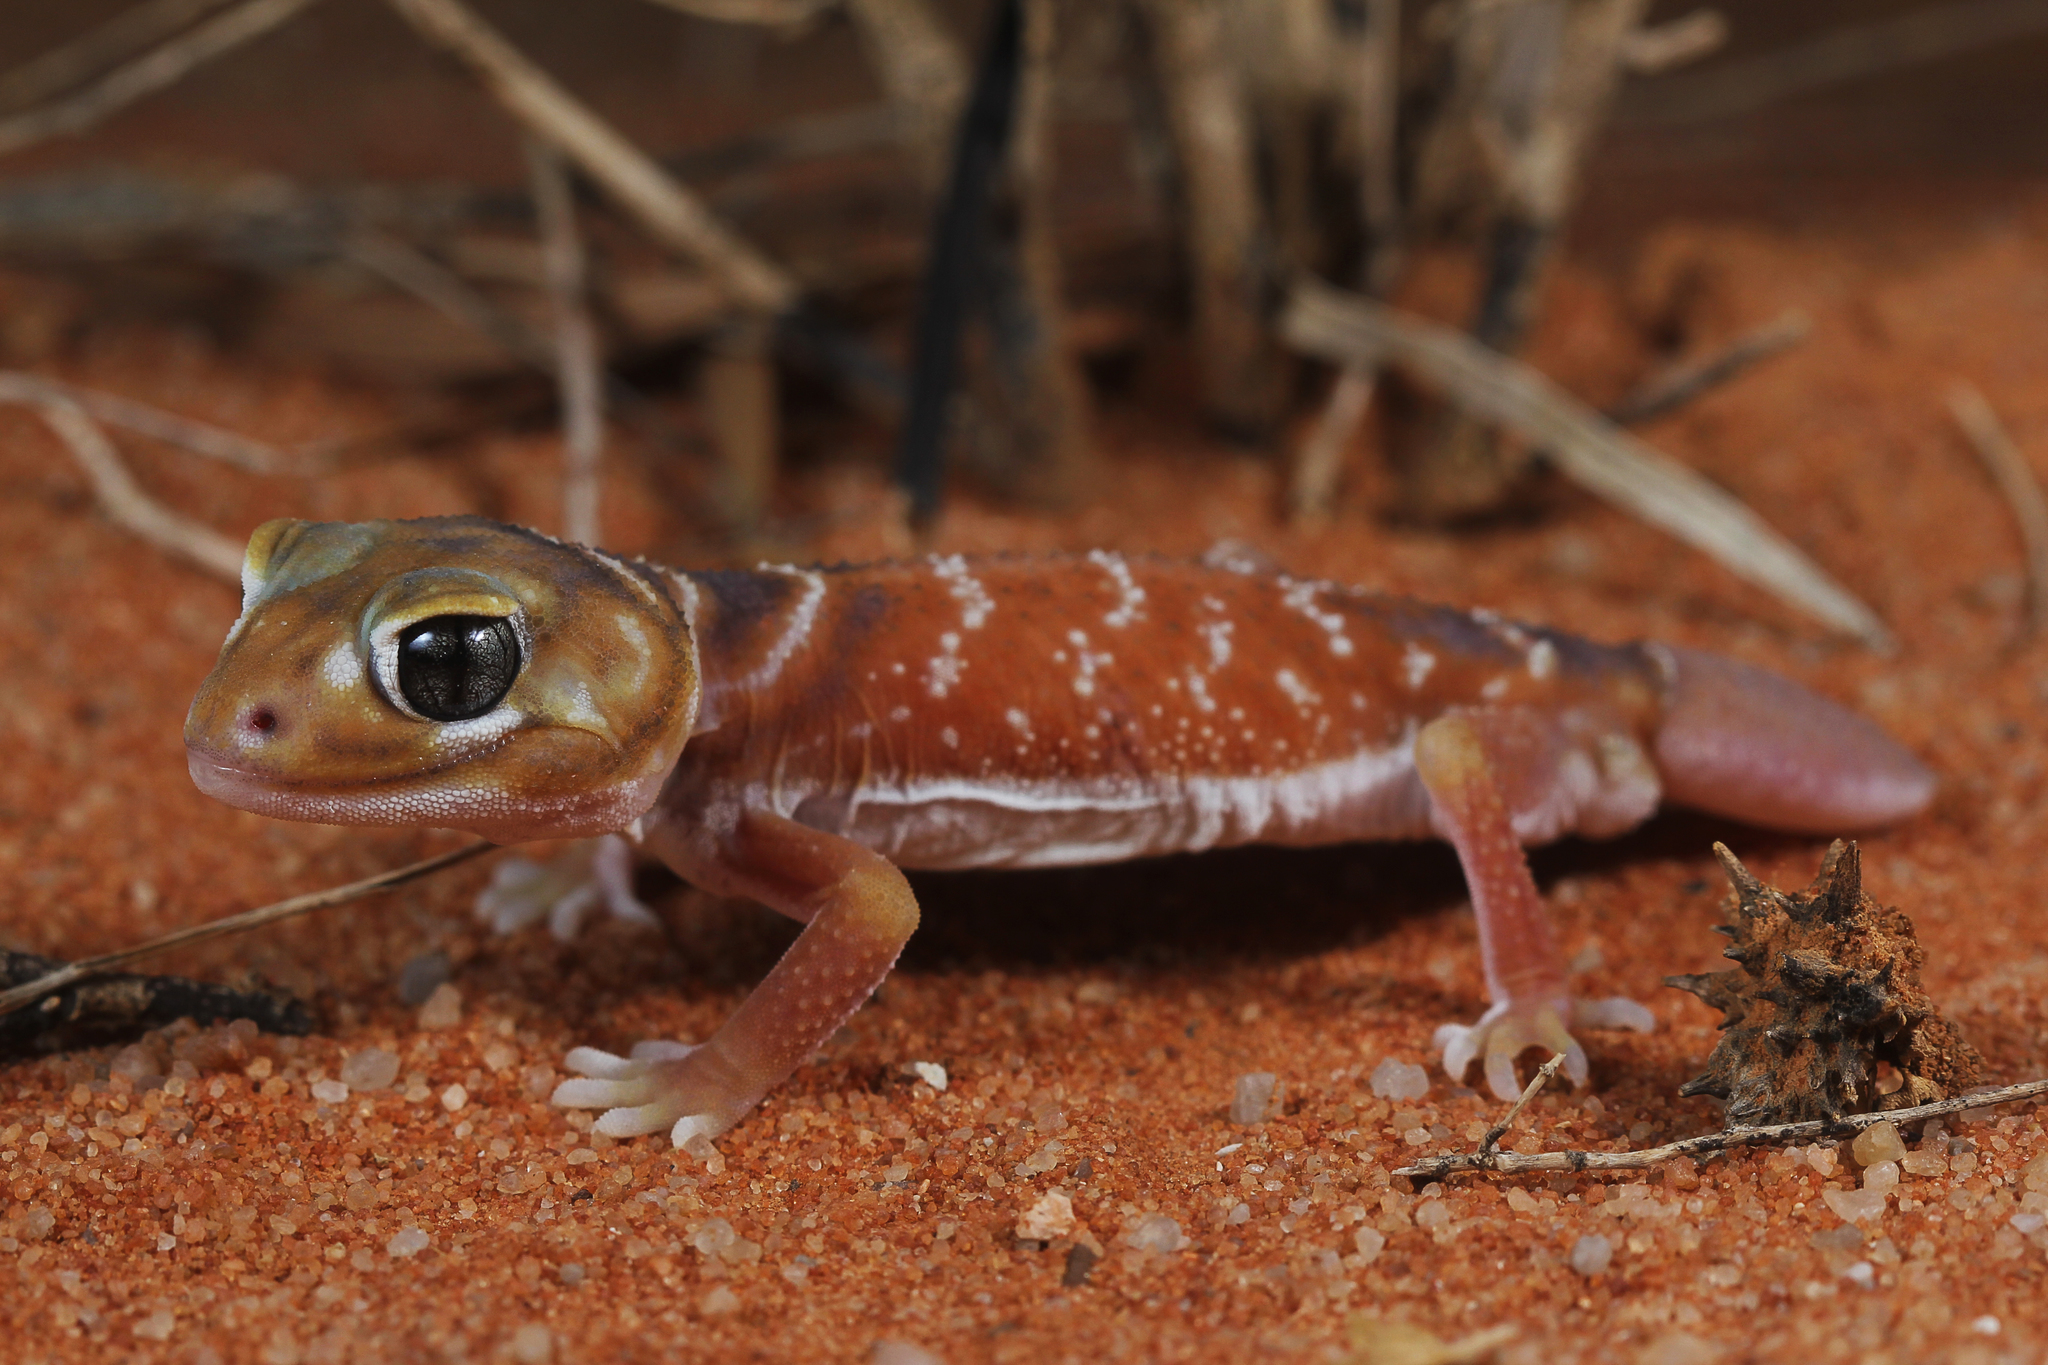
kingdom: Animalia
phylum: Chordata
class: Squamata
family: Carphodactylidae
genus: Nephrurus
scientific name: Nephrurus levis
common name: Smooth knob-tailed gecko
